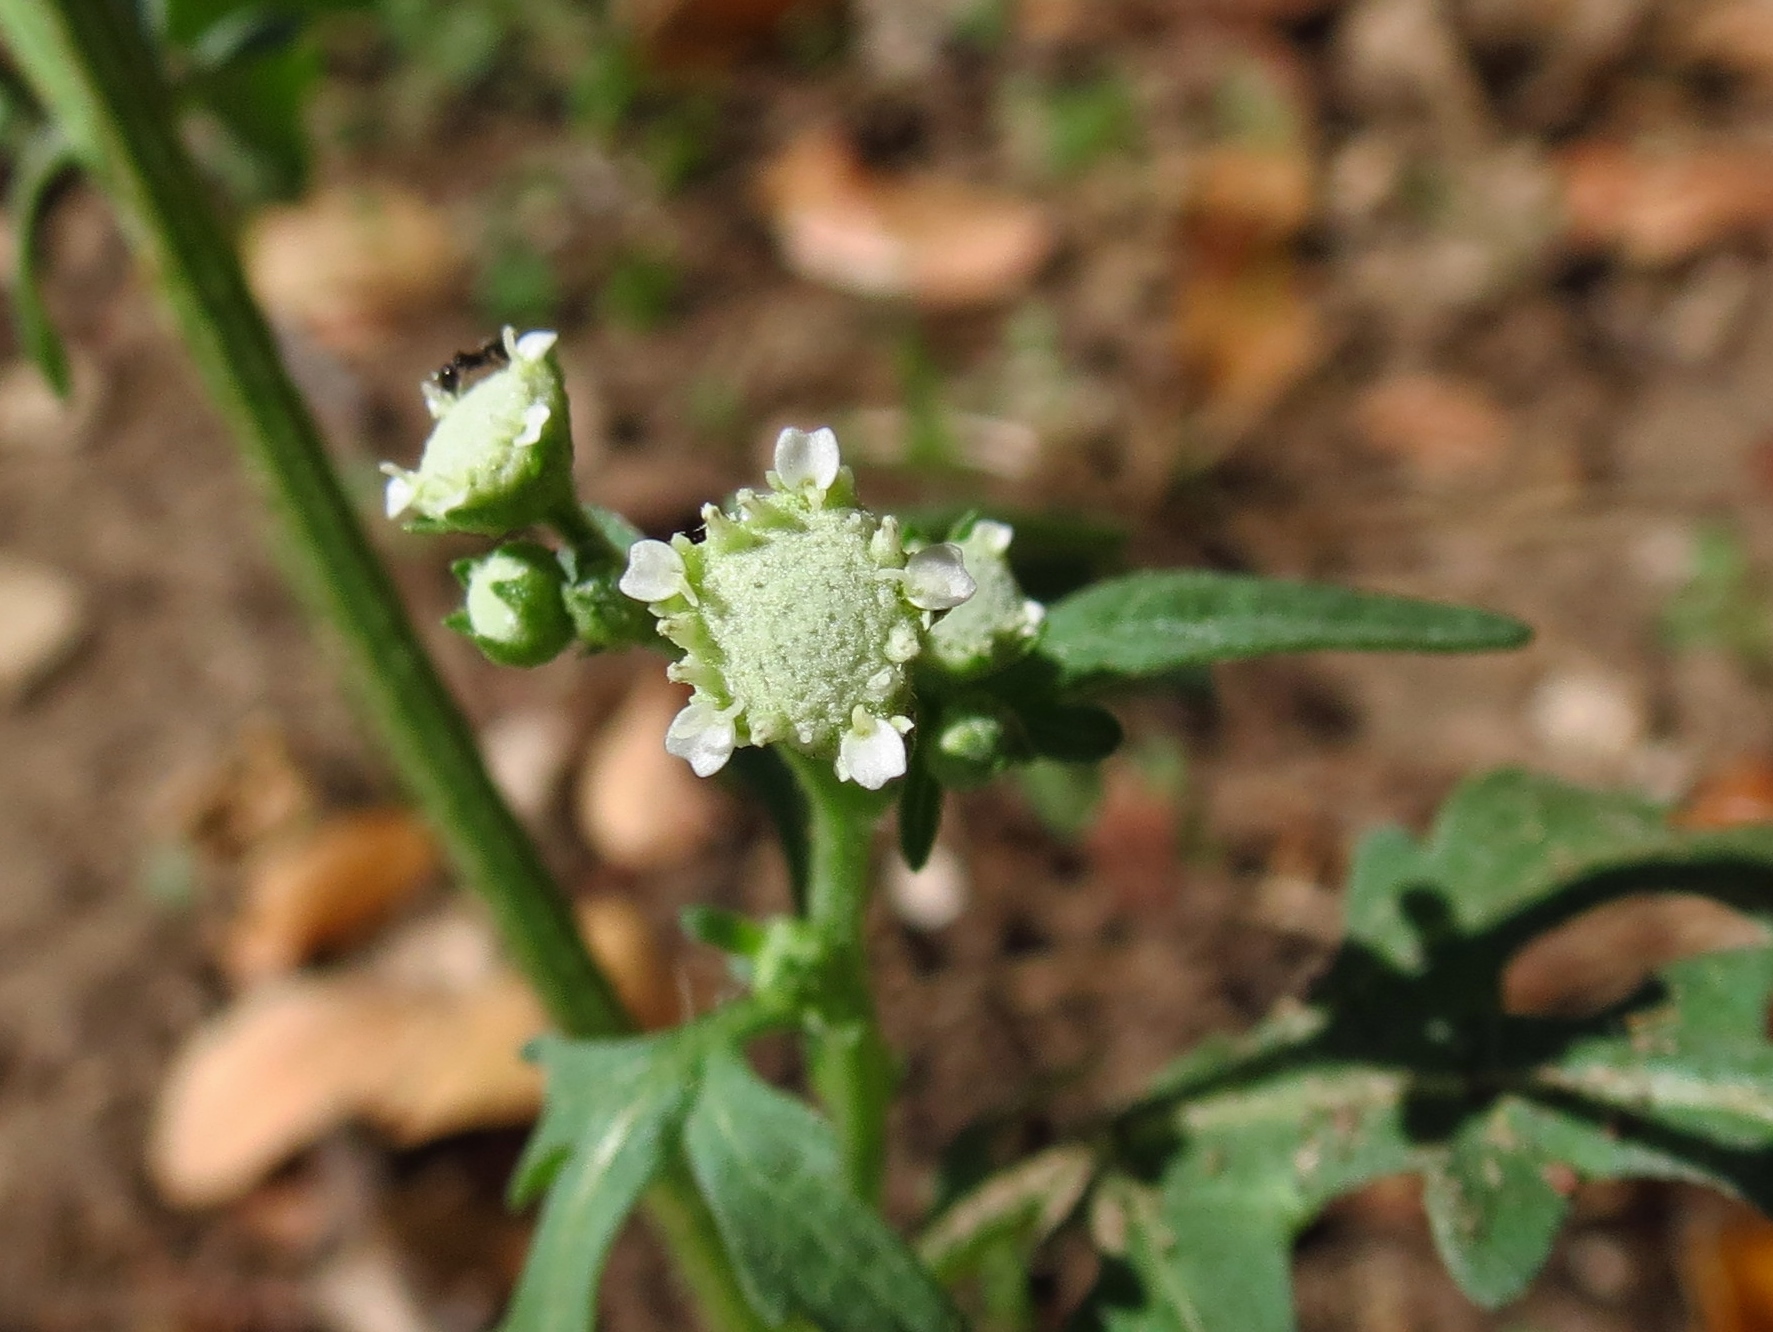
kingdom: Plantae
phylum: Tracheophyta
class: Magnoliopsida
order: Asterales
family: Asteraceae
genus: Parthenium
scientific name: Parthenium hysterophorus
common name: Santa maria feverfew
